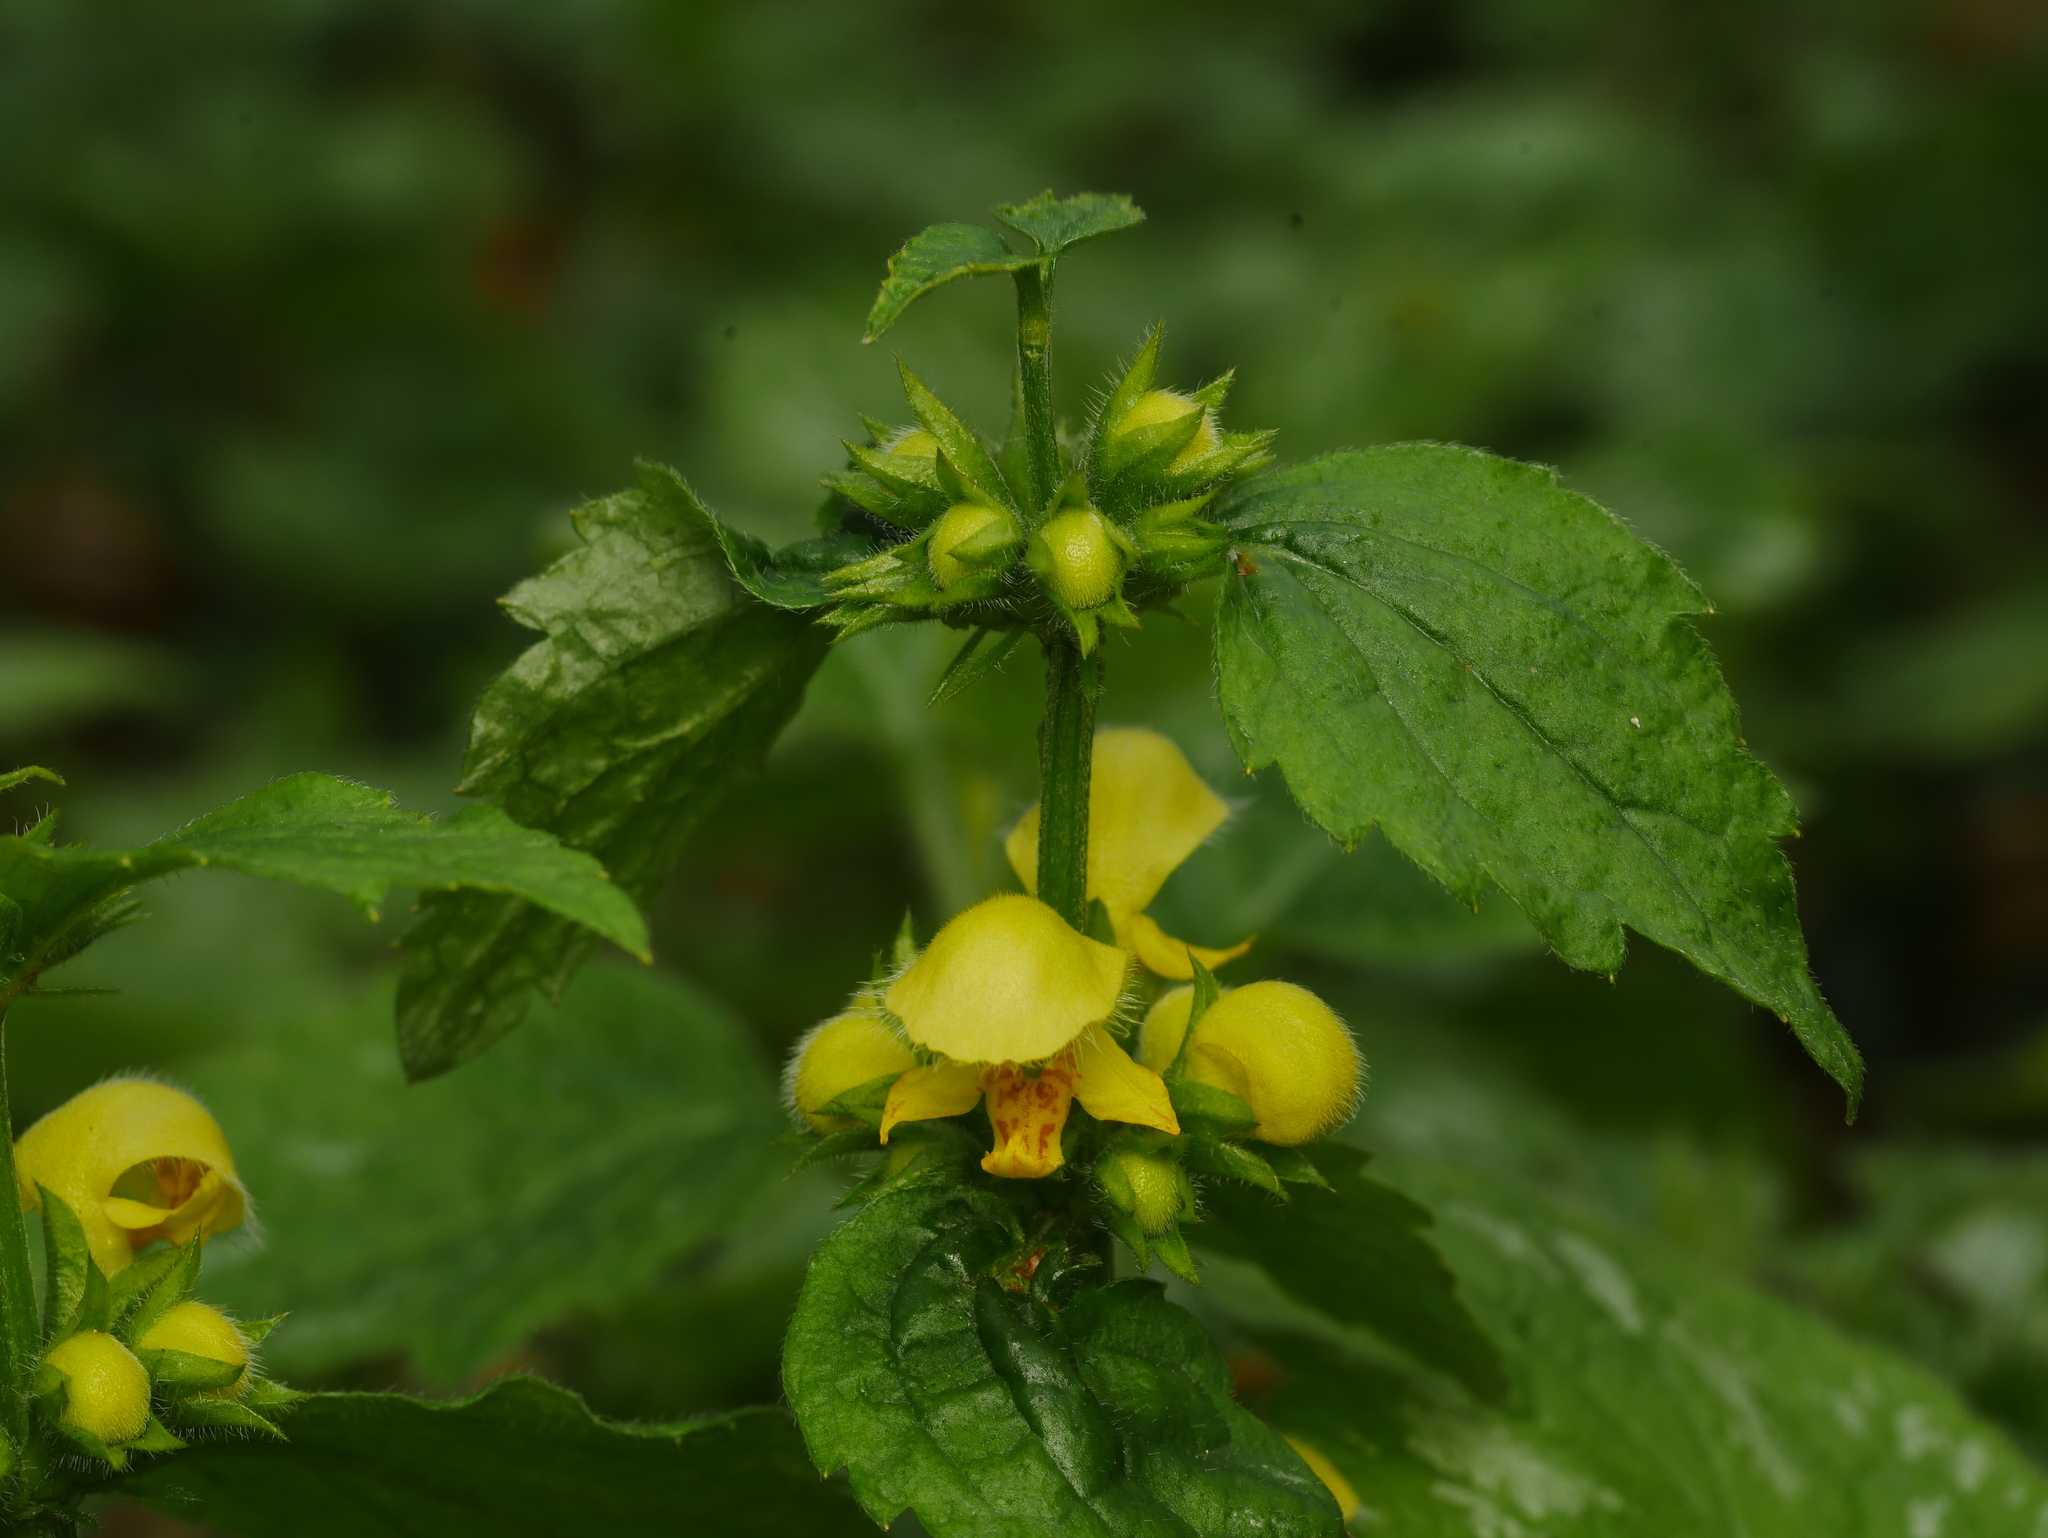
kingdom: Plantae
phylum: Tracheophyta
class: Magnoliopsida
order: Lamiales
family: Lamiaceae
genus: Lamium
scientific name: Lamium galeobdolon
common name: Yellow archangel
